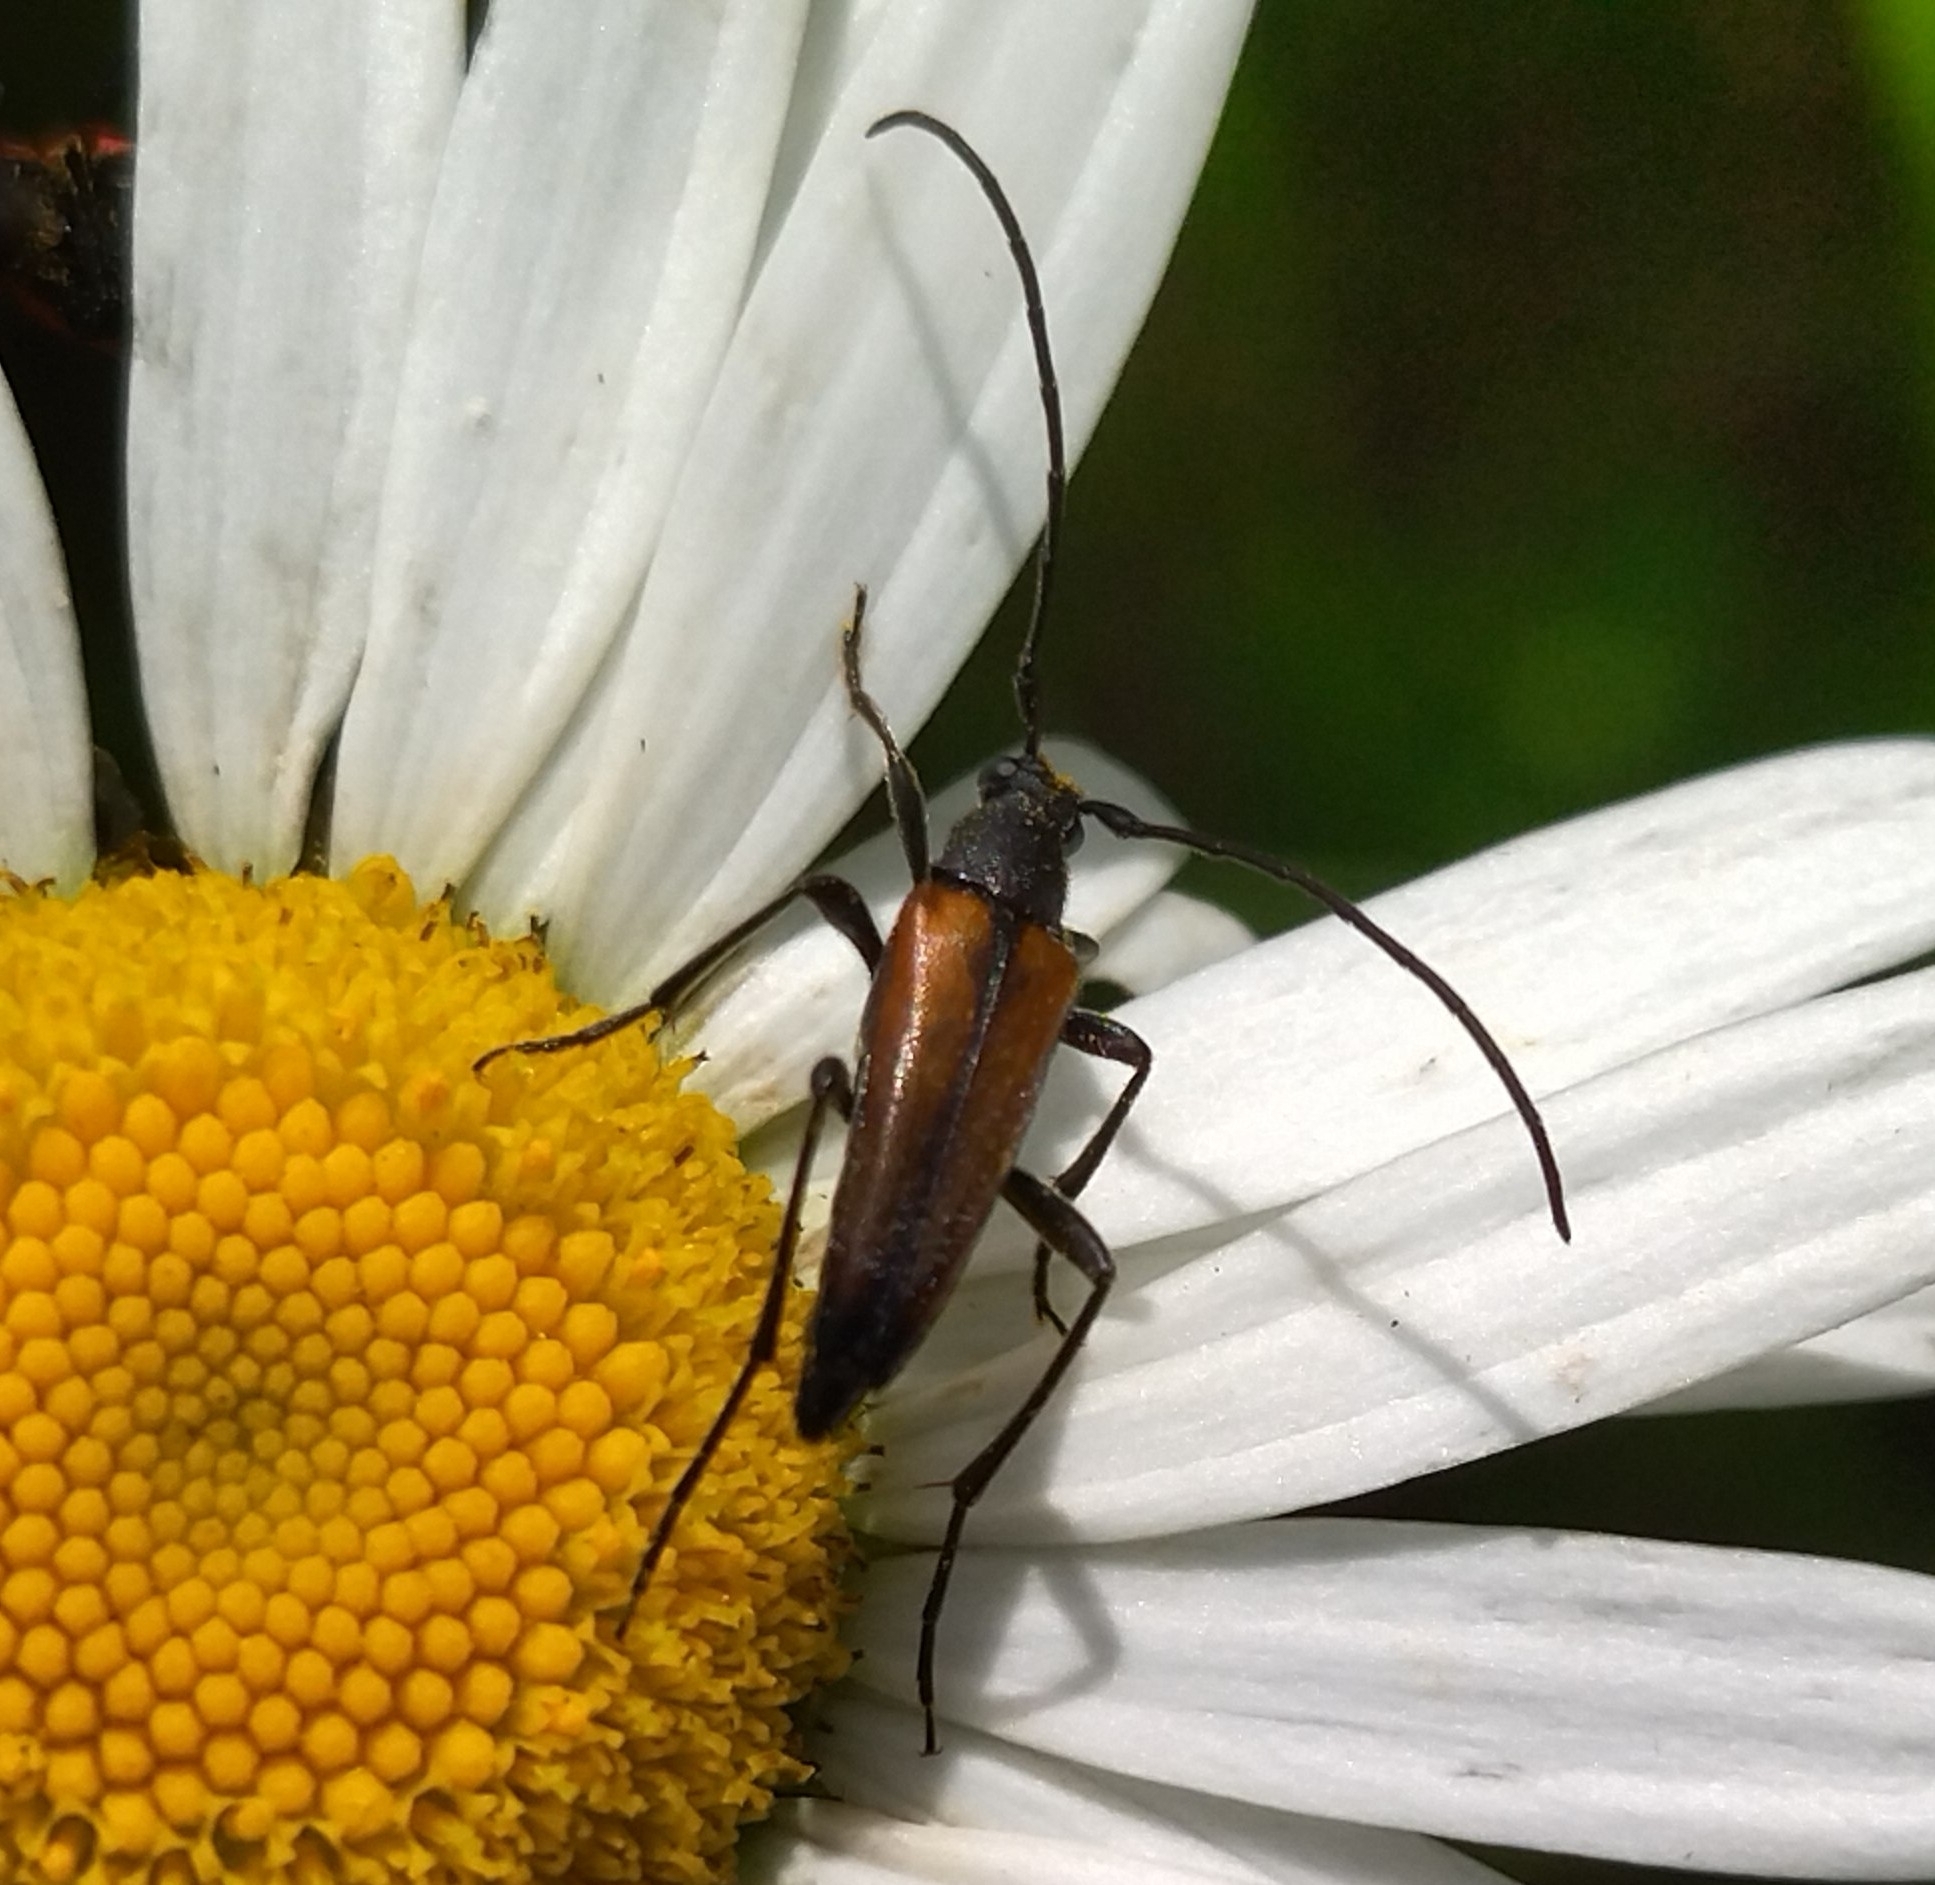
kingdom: Animalia
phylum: Arthropoda
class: Insecta
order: Coleoptera
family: Cerambycidae
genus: Stenurella
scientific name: Stenurella melanura
